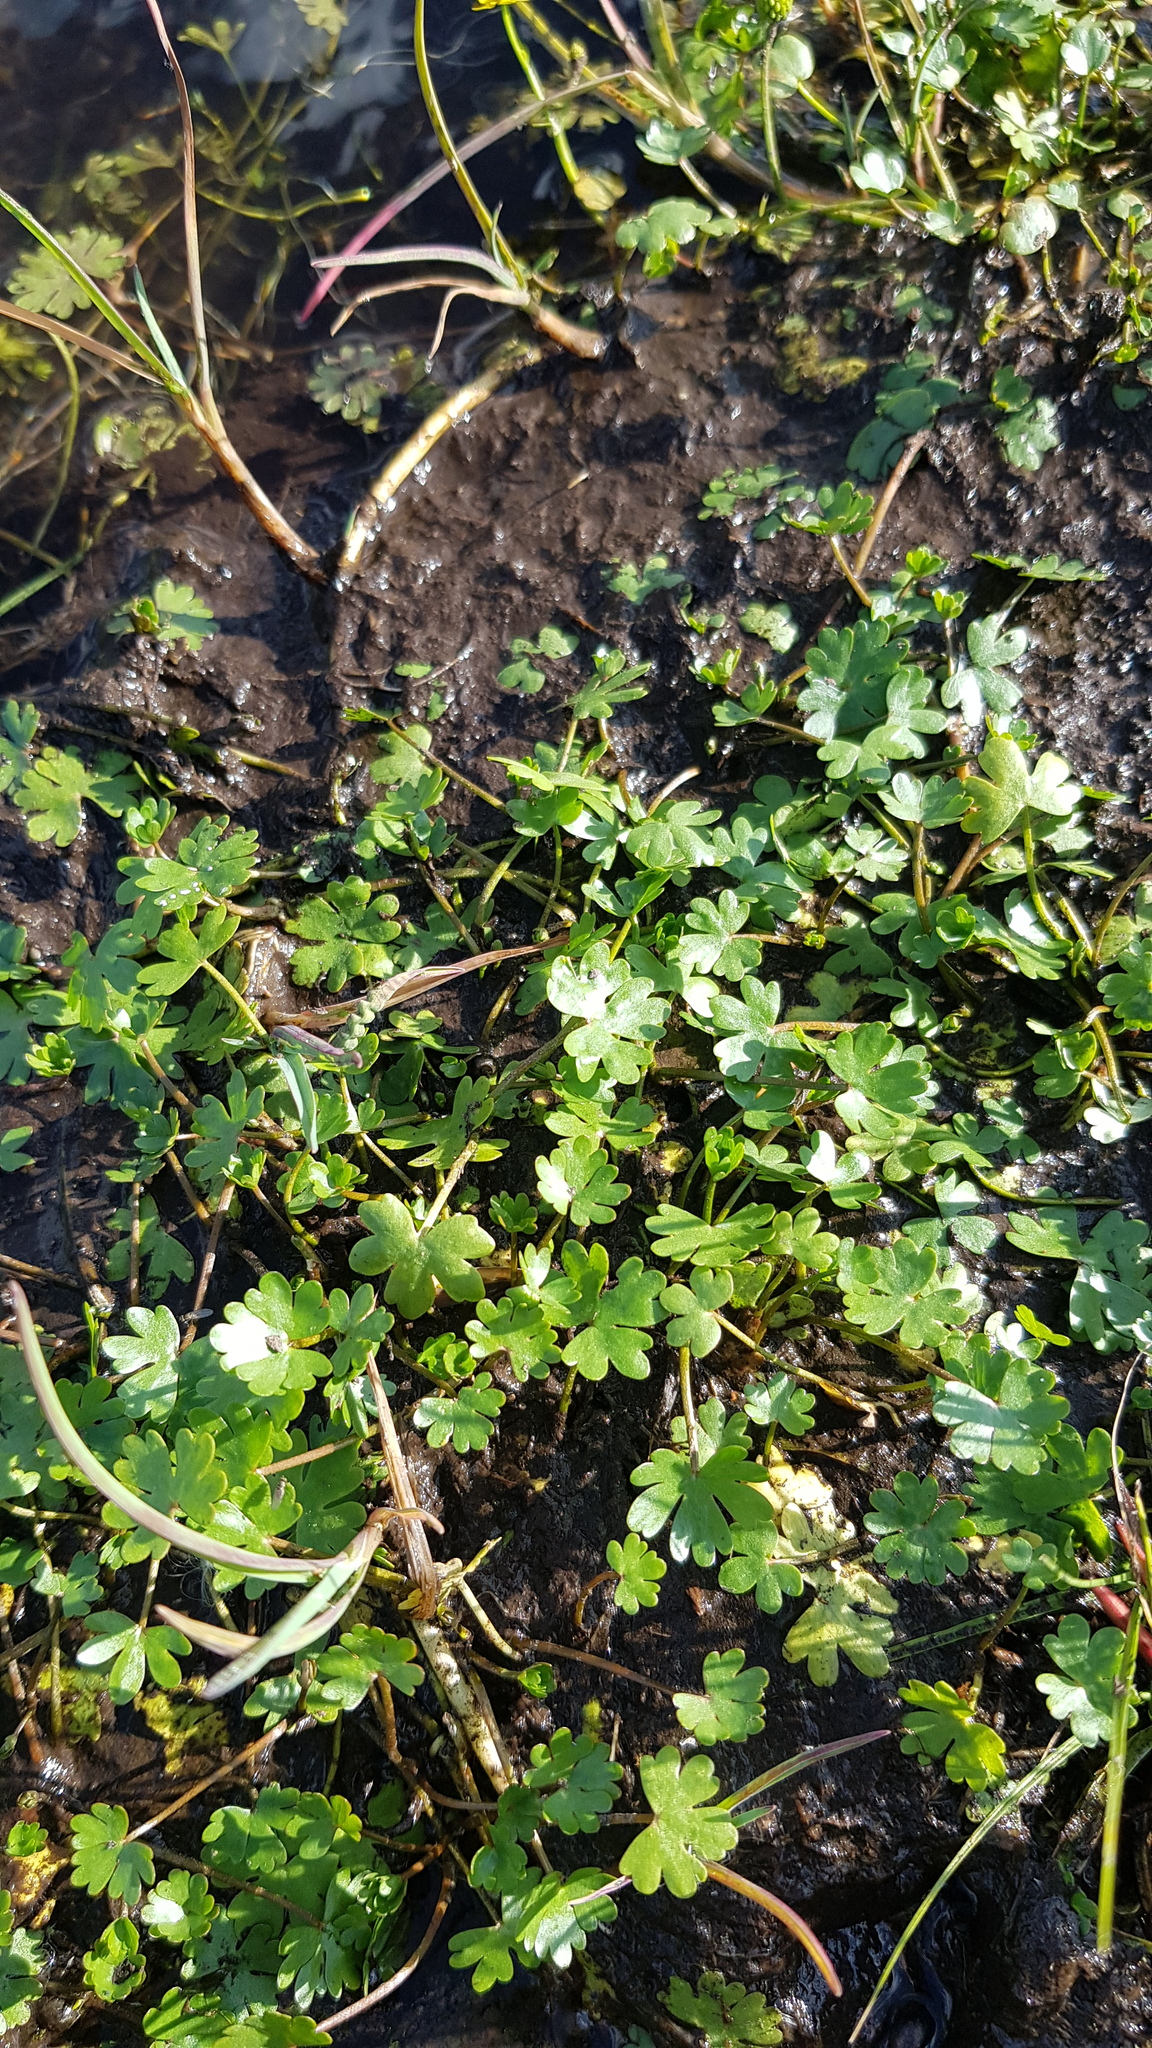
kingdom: Plantae
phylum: Tracheophyta
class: Magnoliopsida
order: Ranunculales
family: Ranunculaceae
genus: Ranunculus
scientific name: Ranunculus gmelinii
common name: Gmelin's buttercup
